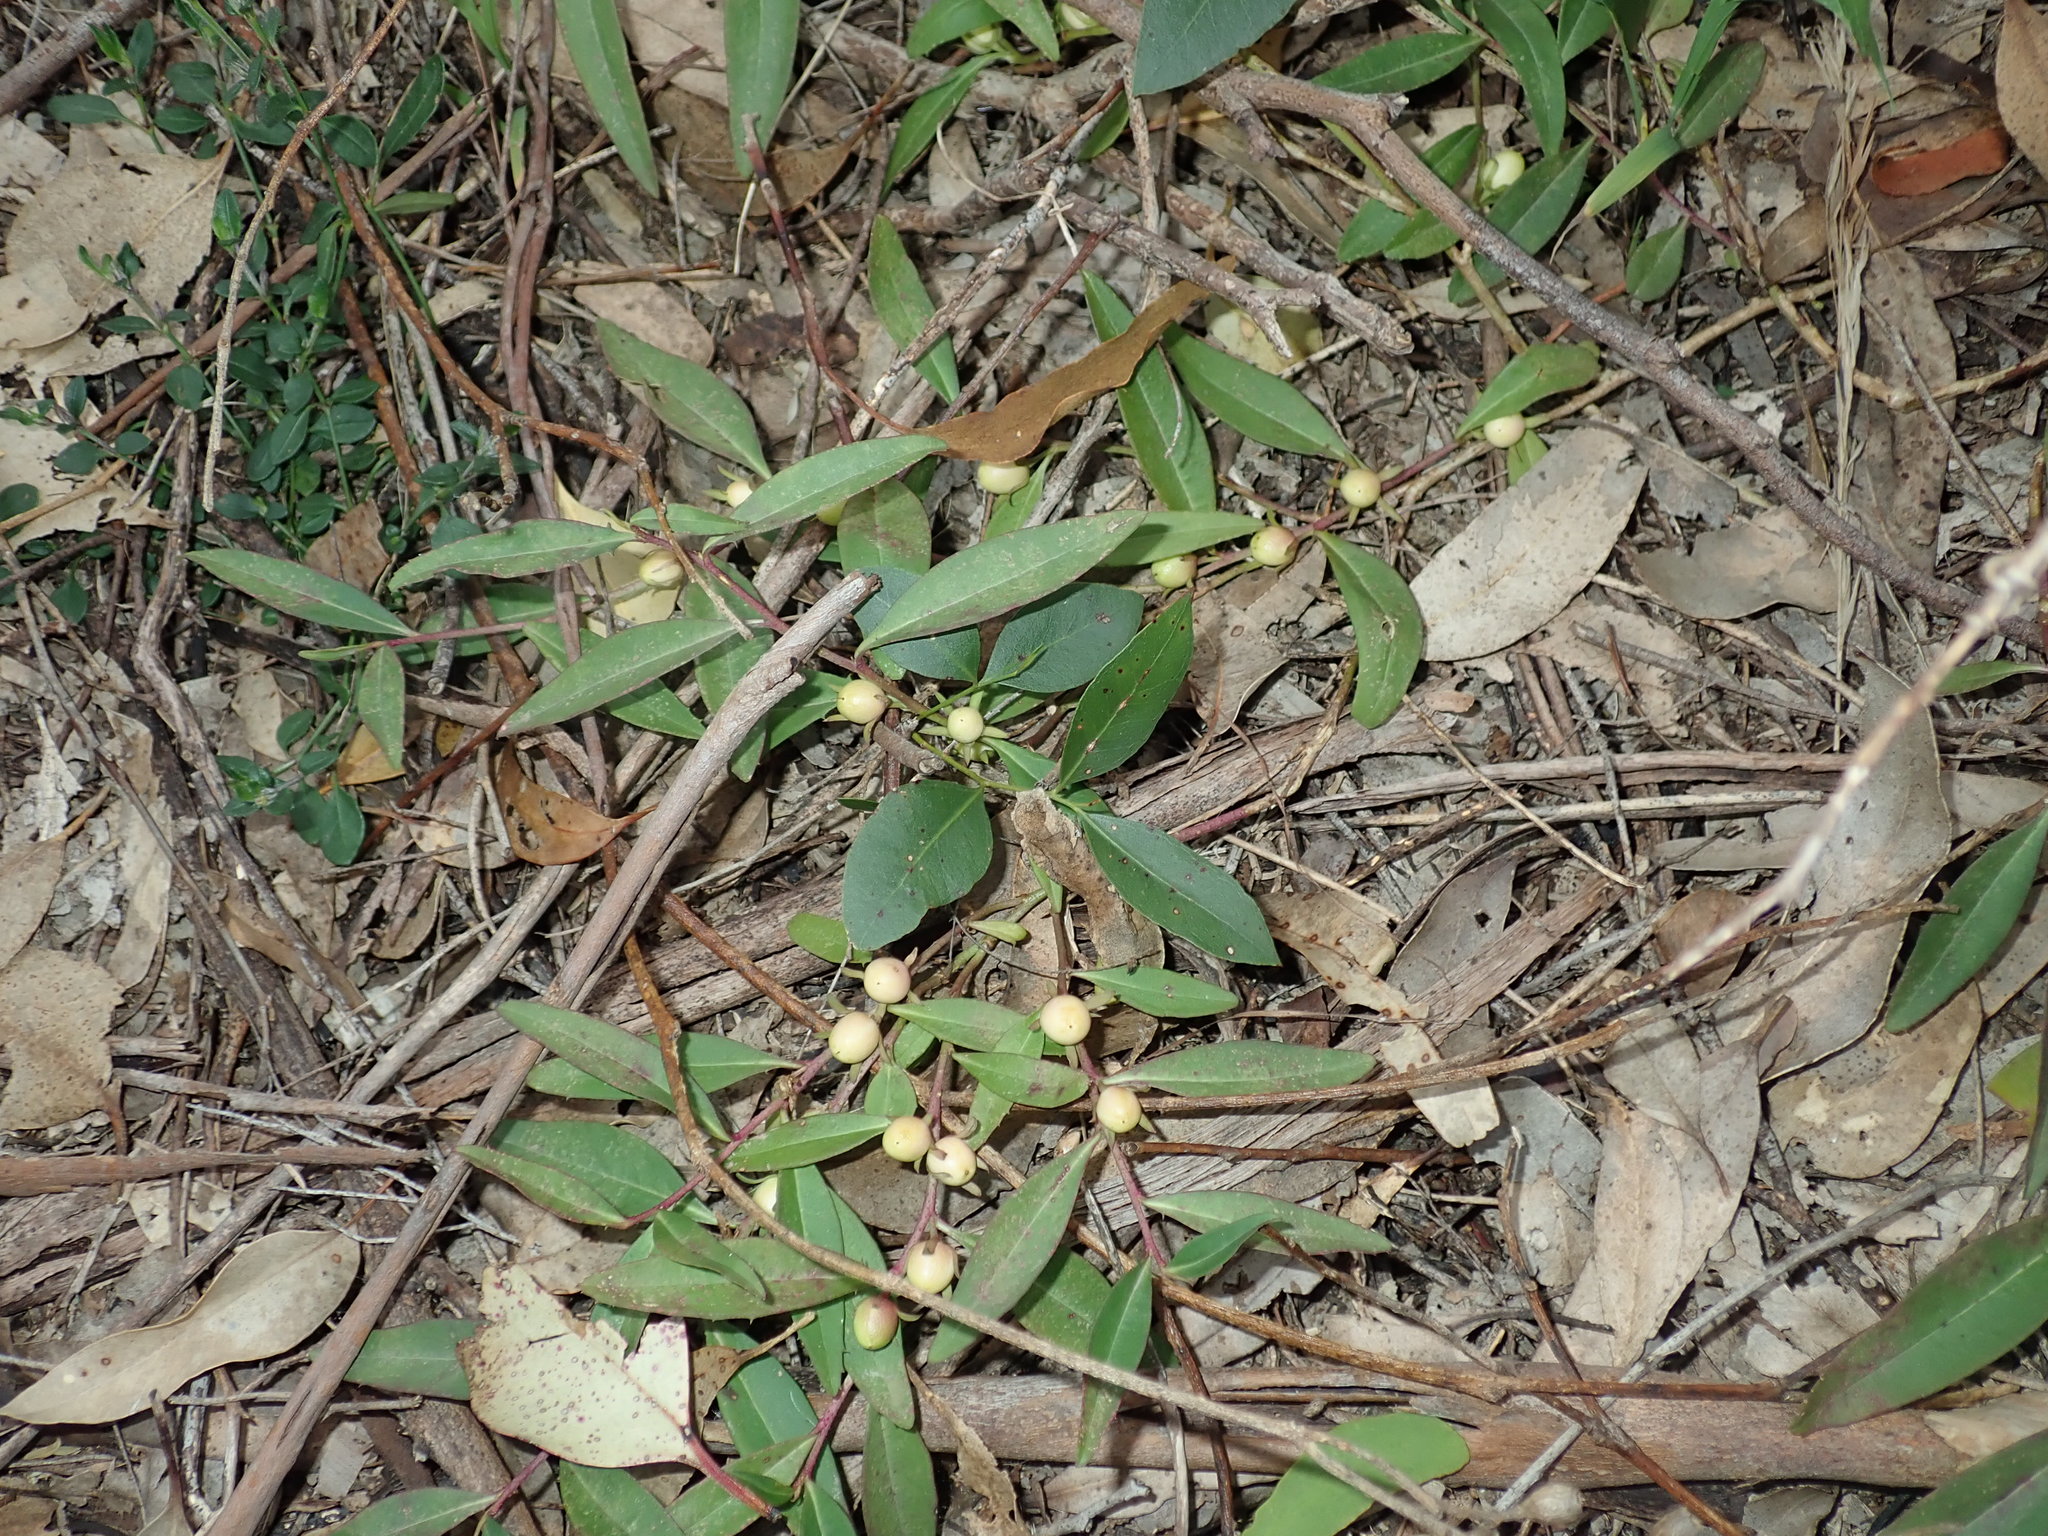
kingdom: Plantae
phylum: Tracheophyta
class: Magnoliopsida
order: Lamiales
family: Scrophulariaceae
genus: Eremophila
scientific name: Eremophila debilis
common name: Winter-apple
